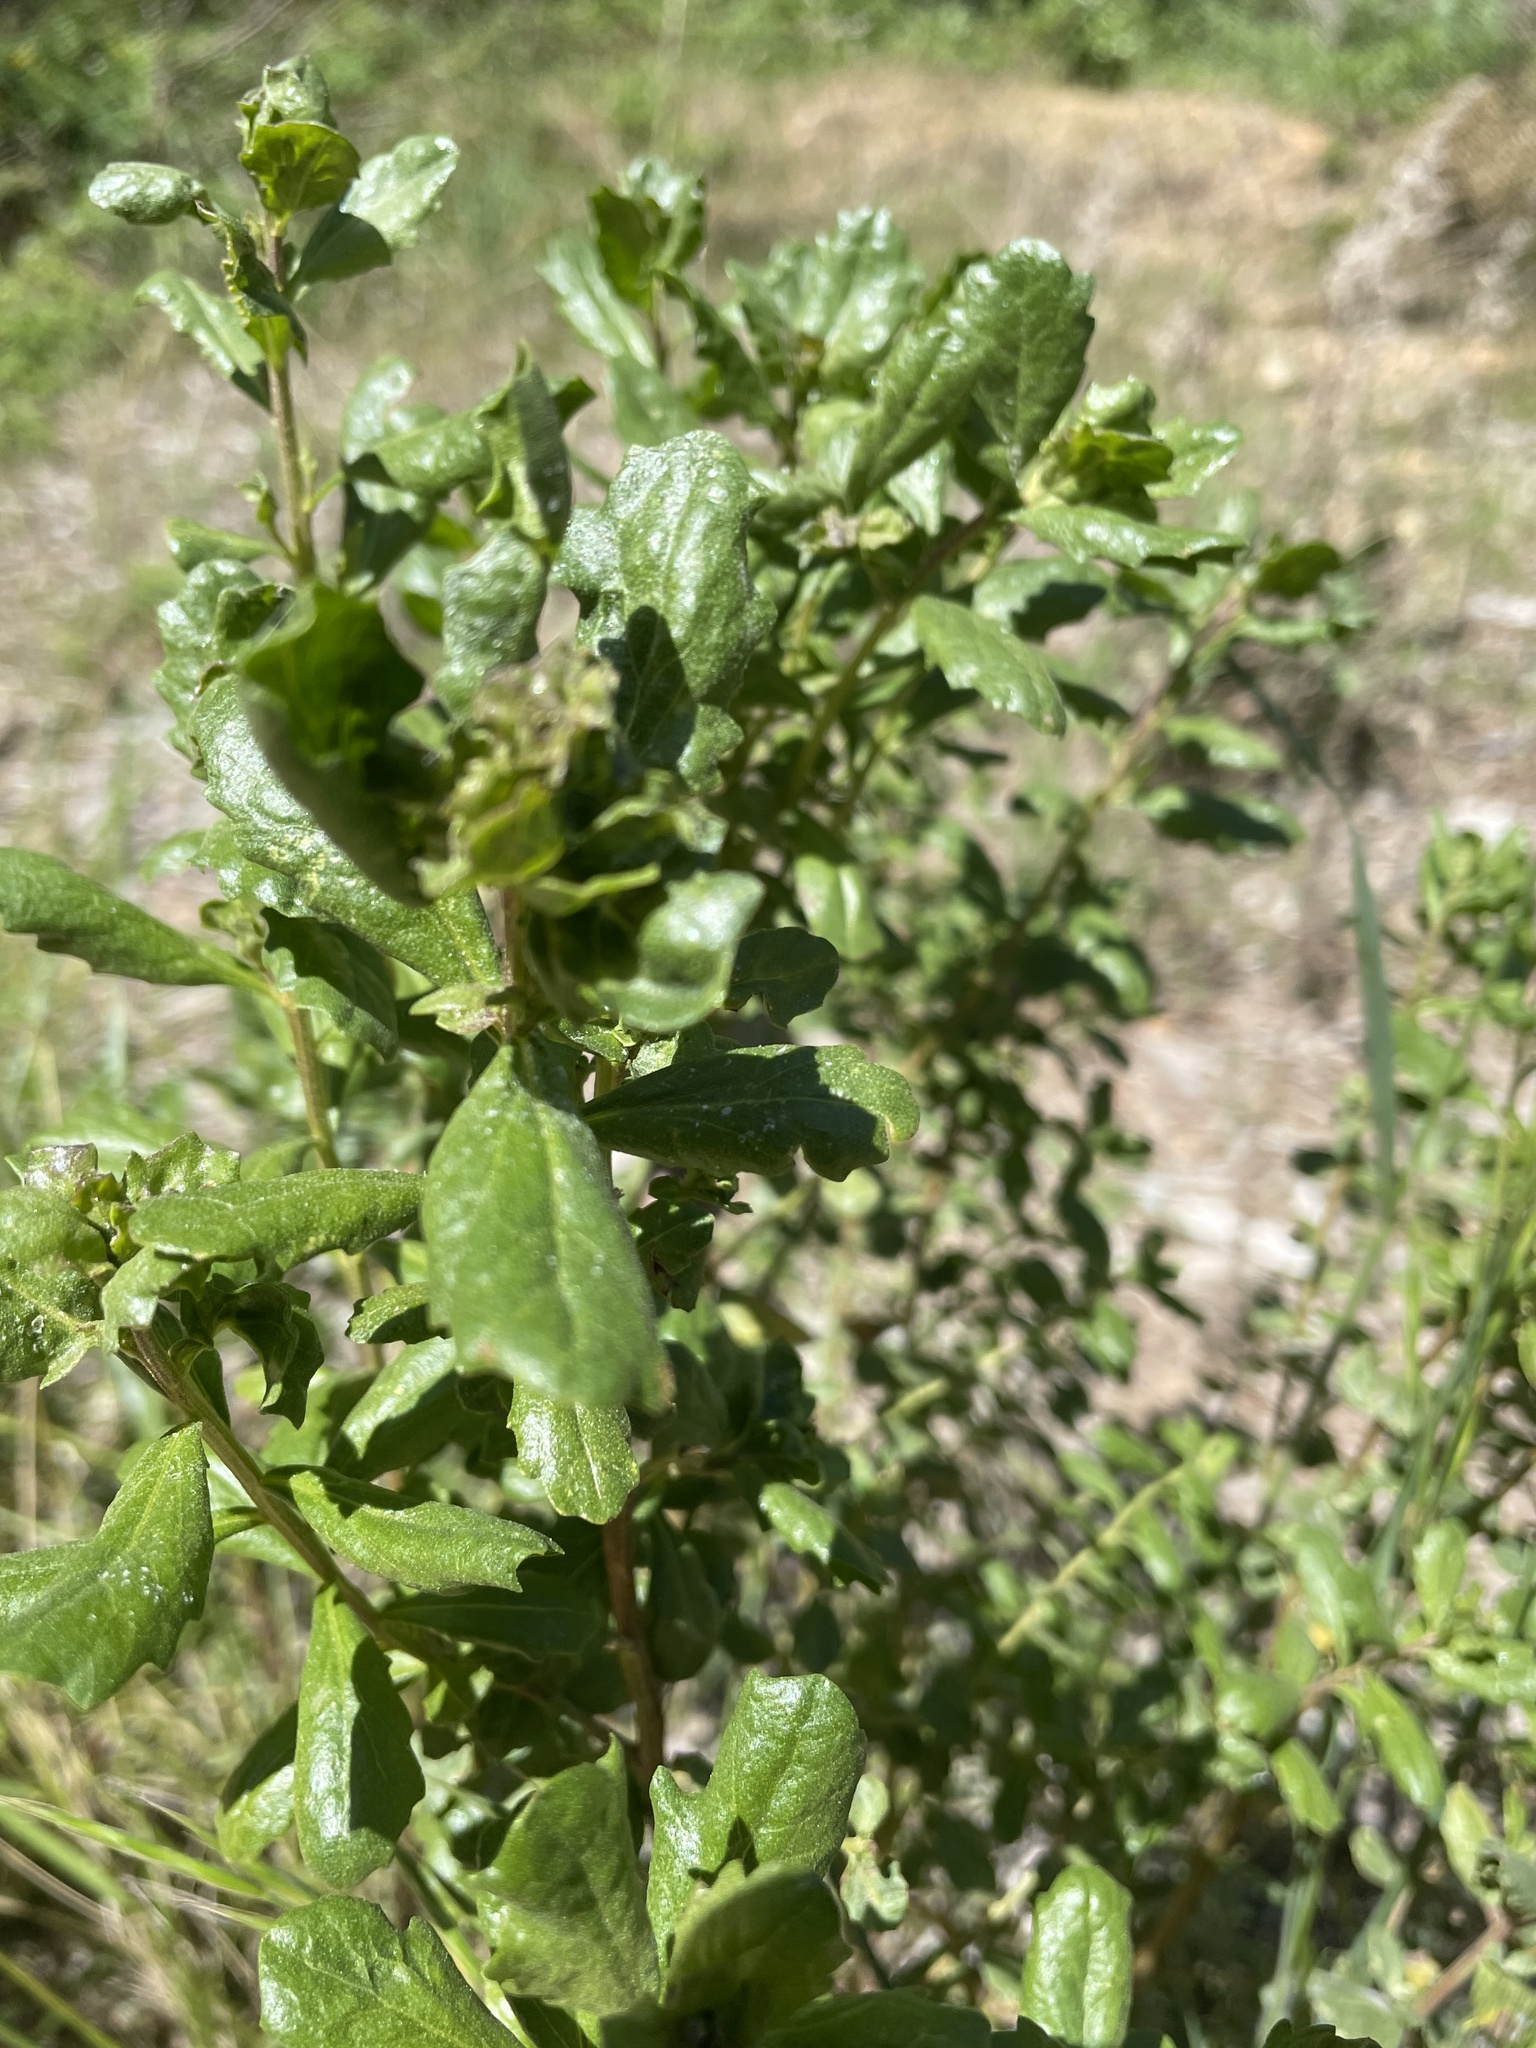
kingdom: Plantae
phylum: Tracheophyta
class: Magnoliopsida
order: Asterales
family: Asteraceae
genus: Baccharis
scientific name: Baccharis pilularis
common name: Coyotebrush
